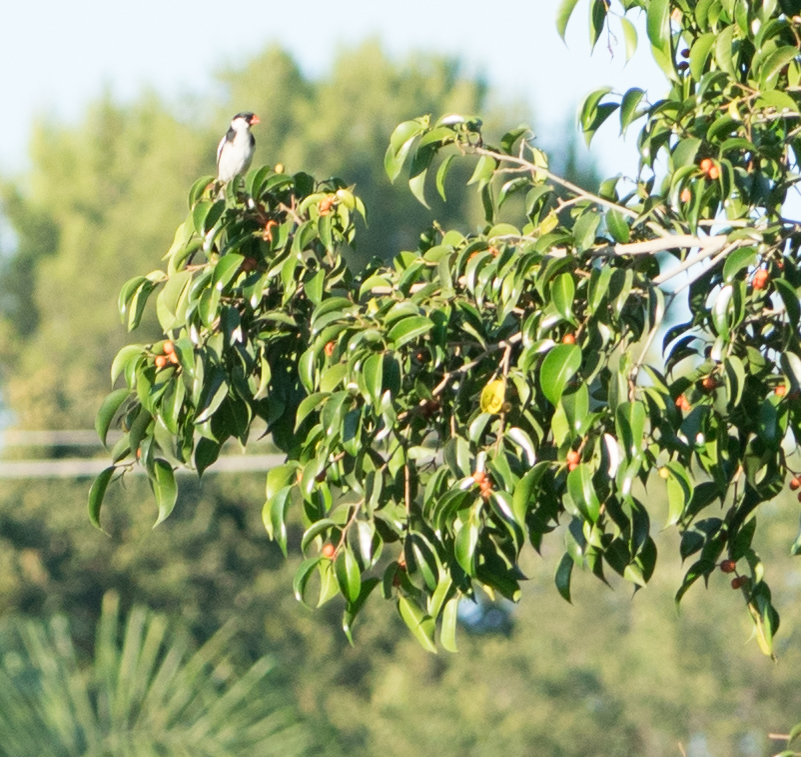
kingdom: Animalia
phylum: Chordata
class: Aves
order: Passeriformes
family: Viduidae
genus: Vidua
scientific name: Vidua macroura
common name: Pin-tailed whydah
